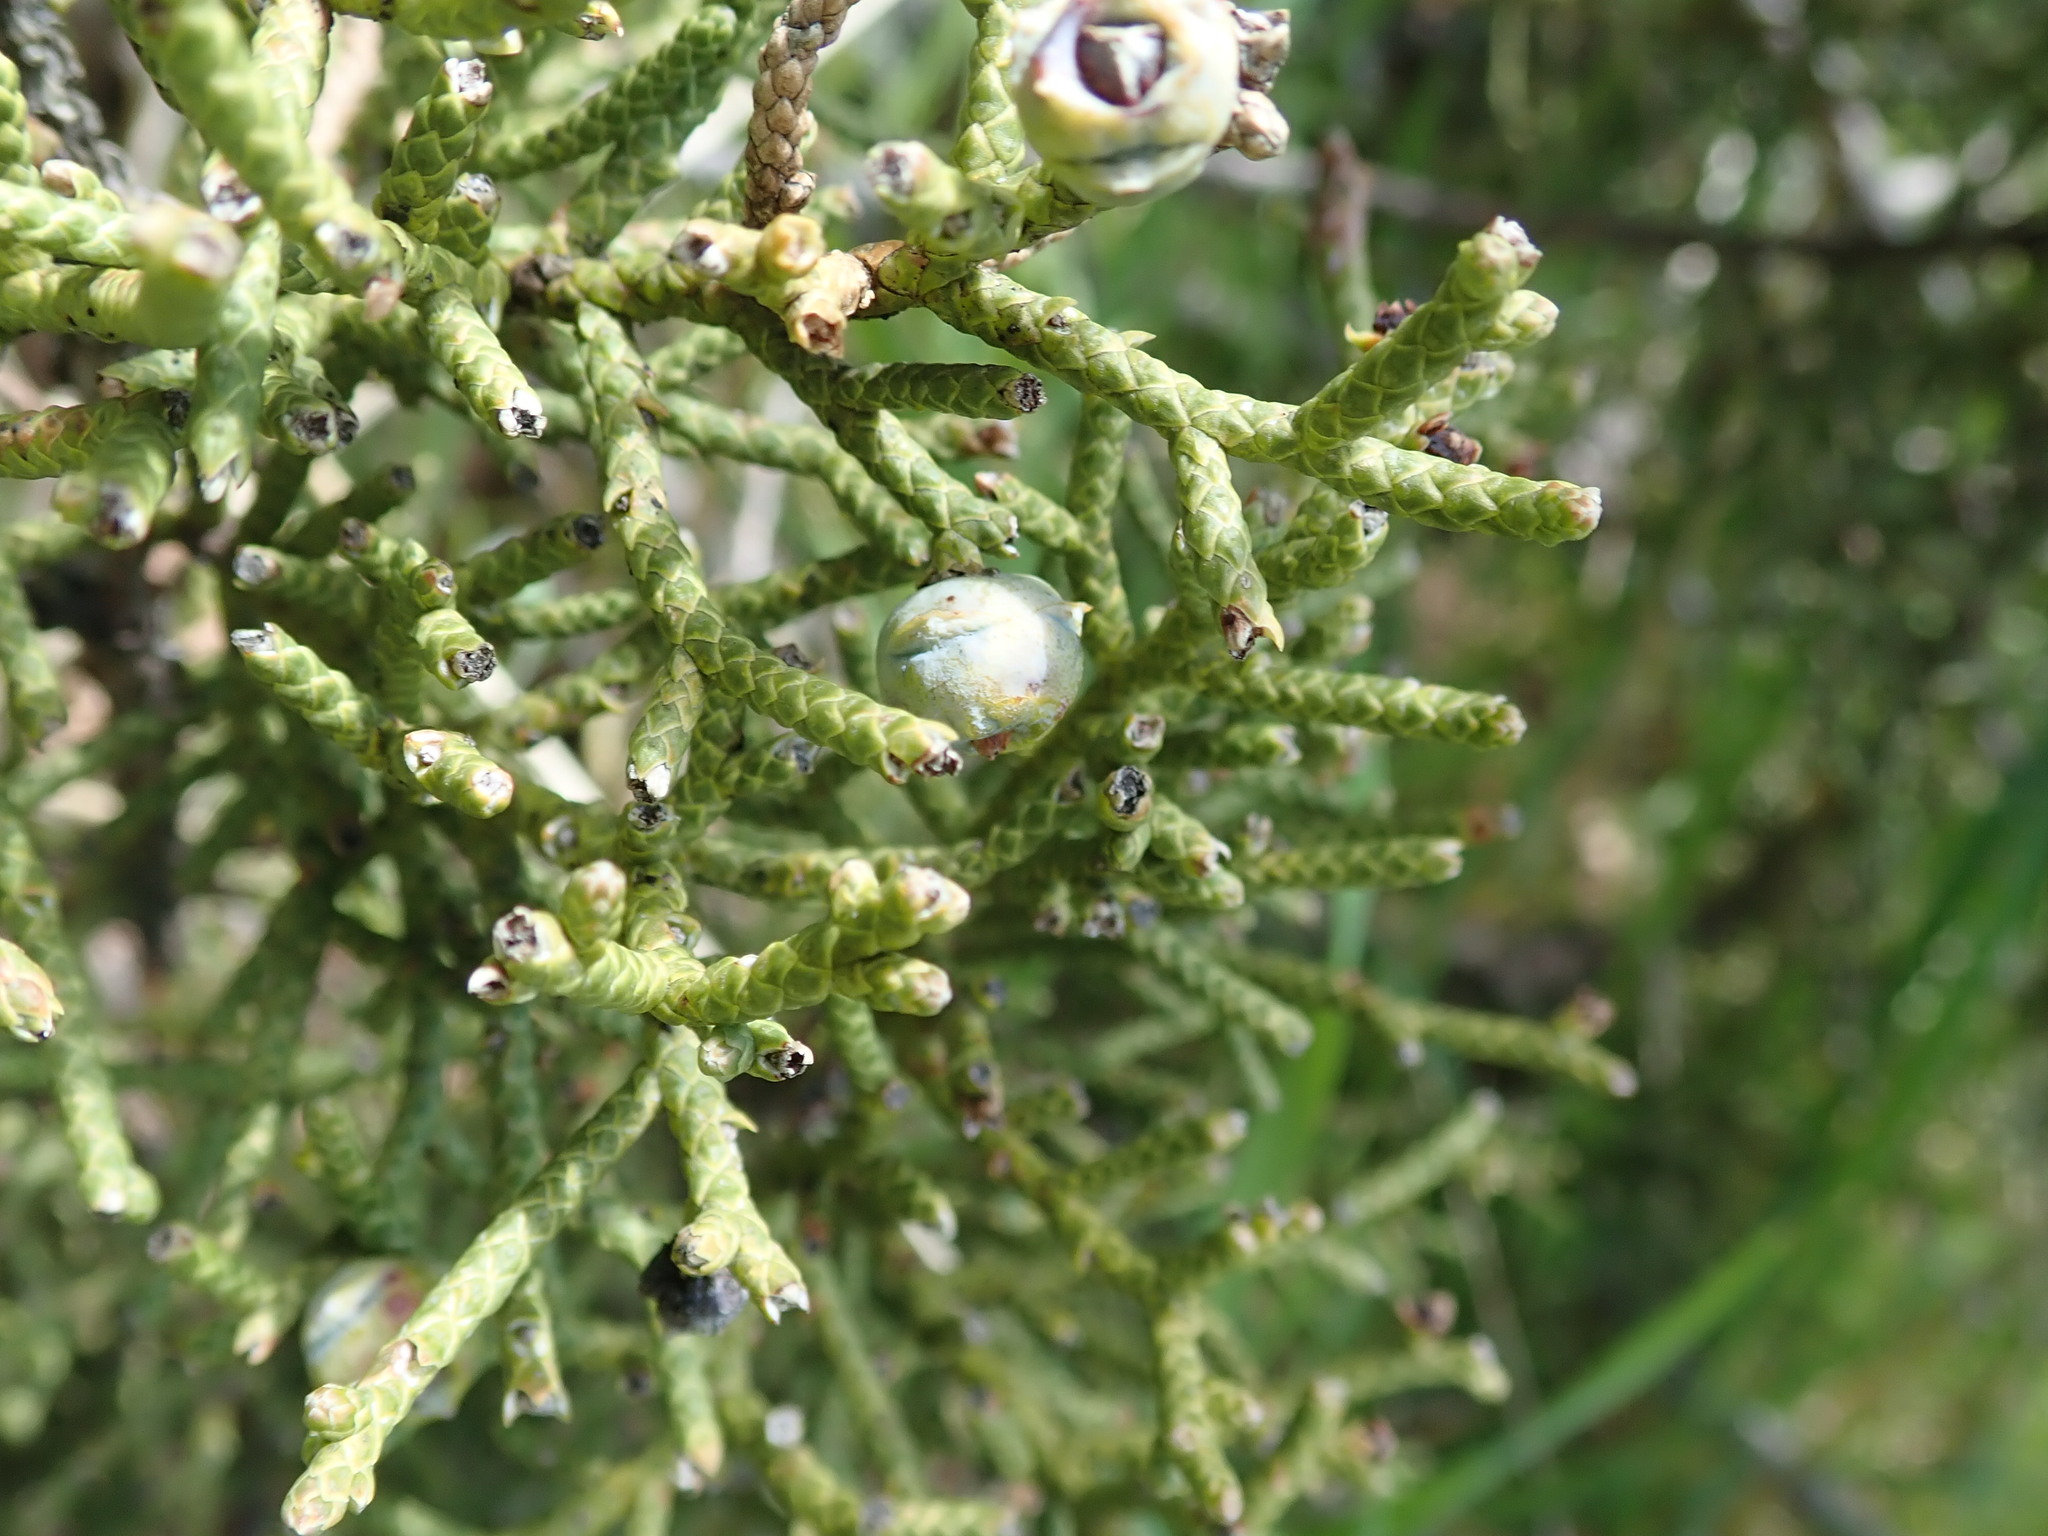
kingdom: Plantae
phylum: Tracheophyta
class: Pinopsida
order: Pinales
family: Cupressaceae
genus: Juniperus
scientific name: Juniperus californica
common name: California juniper
